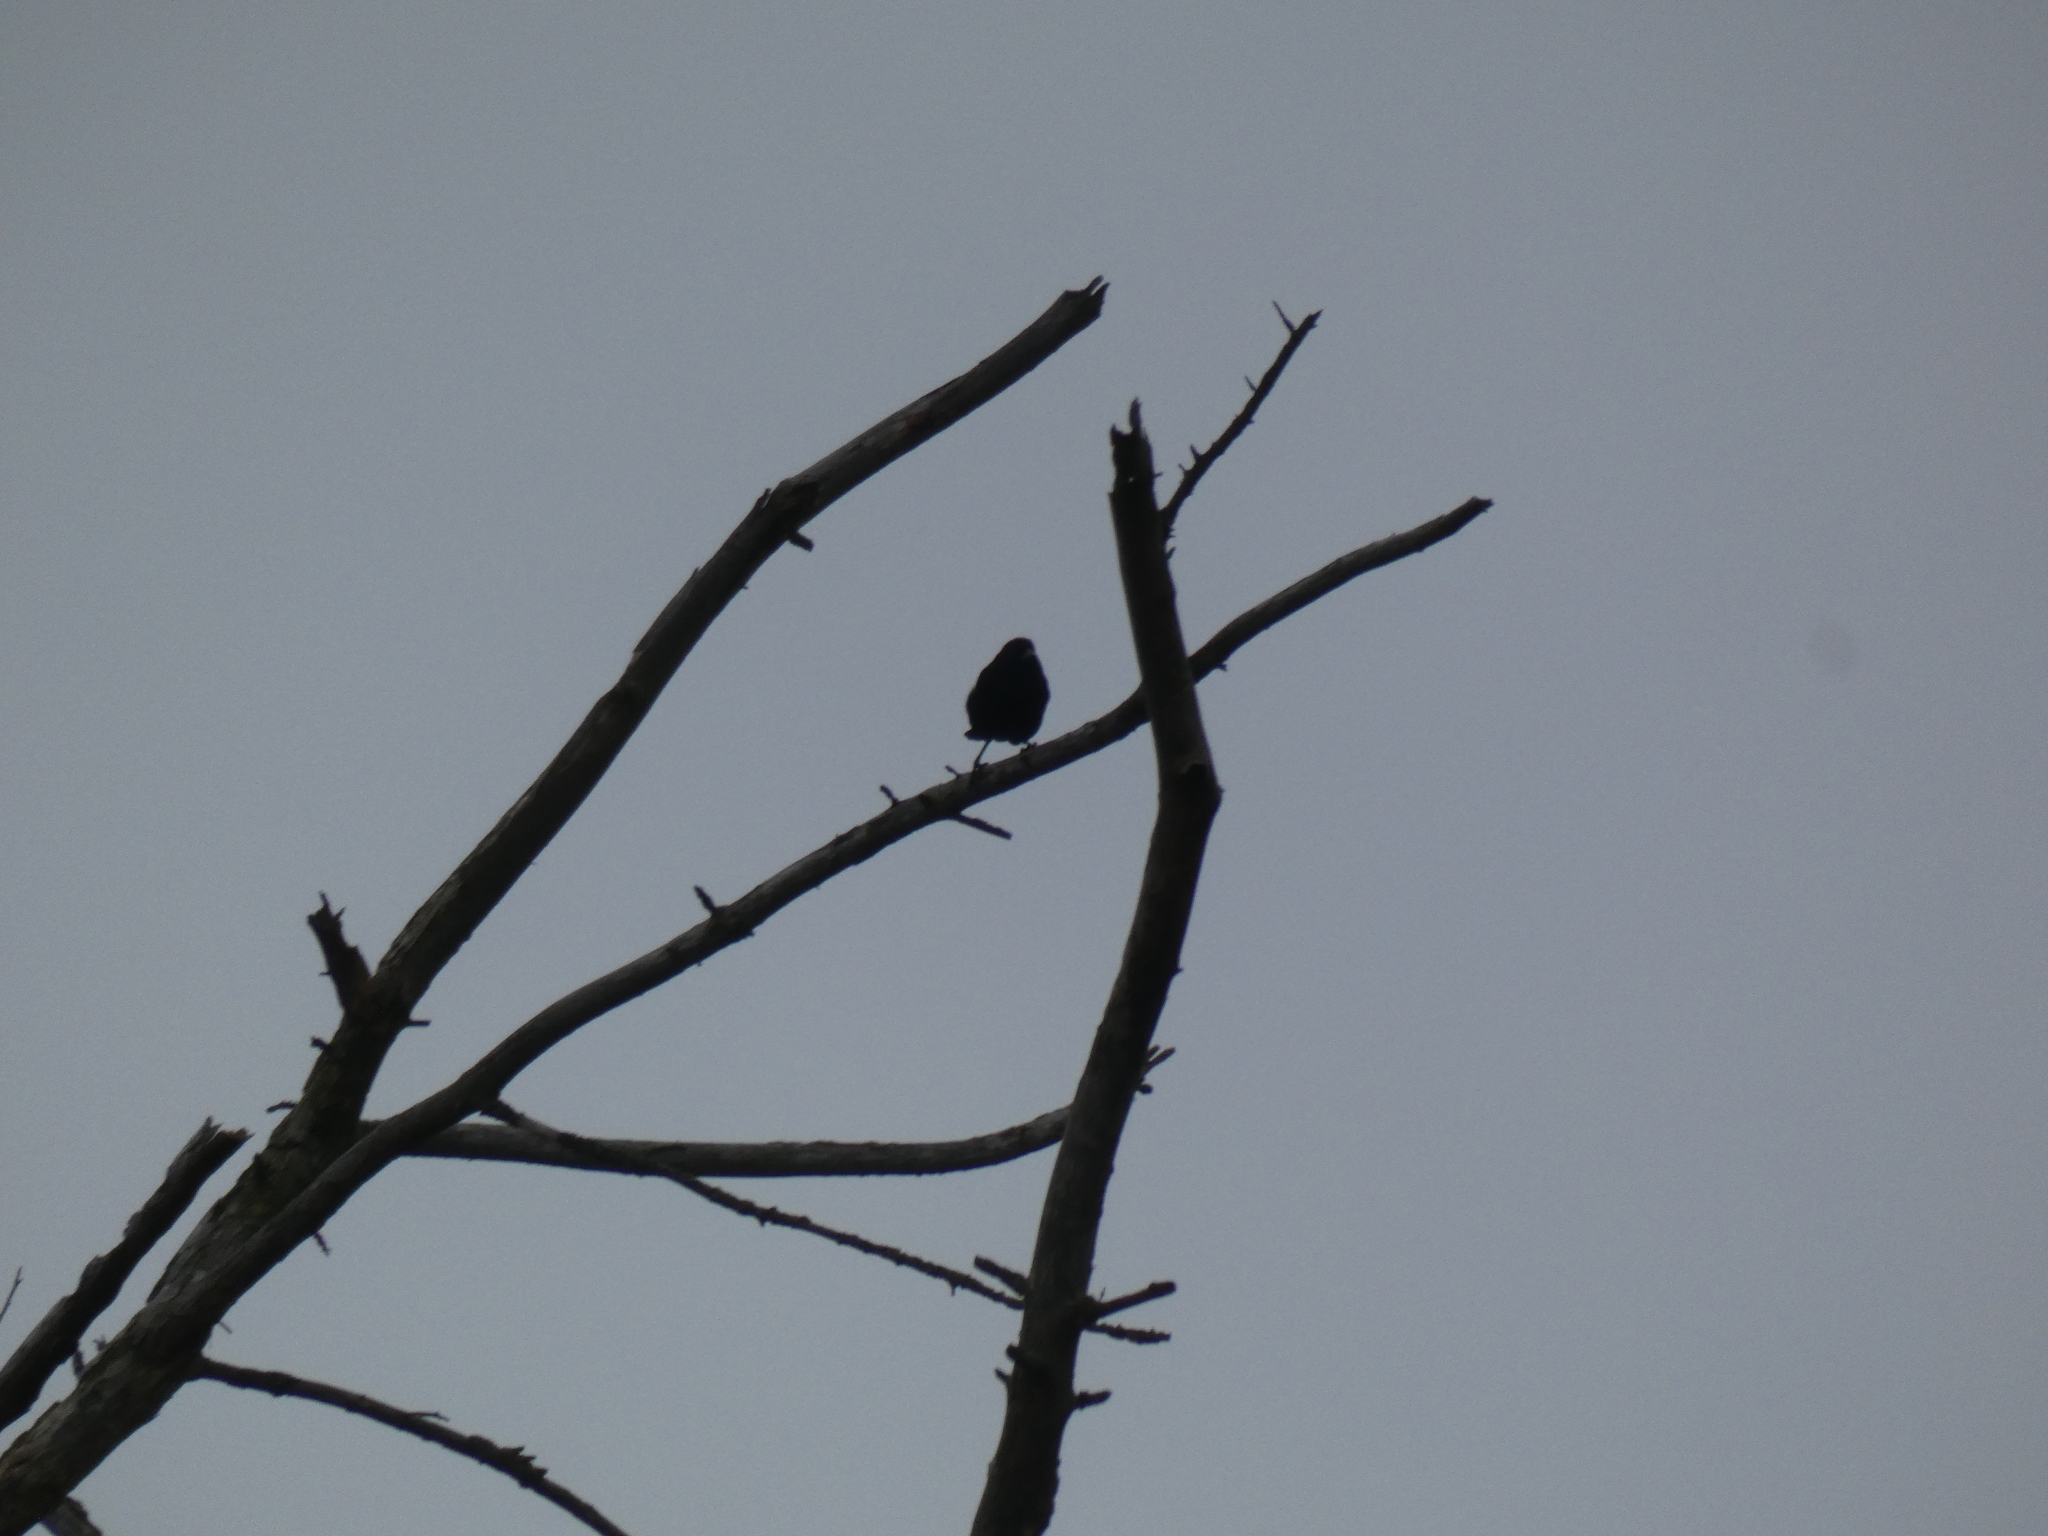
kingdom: Animalia
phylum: Chordata
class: Aves
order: Passeriformes
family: Icteridae
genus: Agelaius
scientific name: Agelaius phoeniceus
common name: Red-winged blackbird
